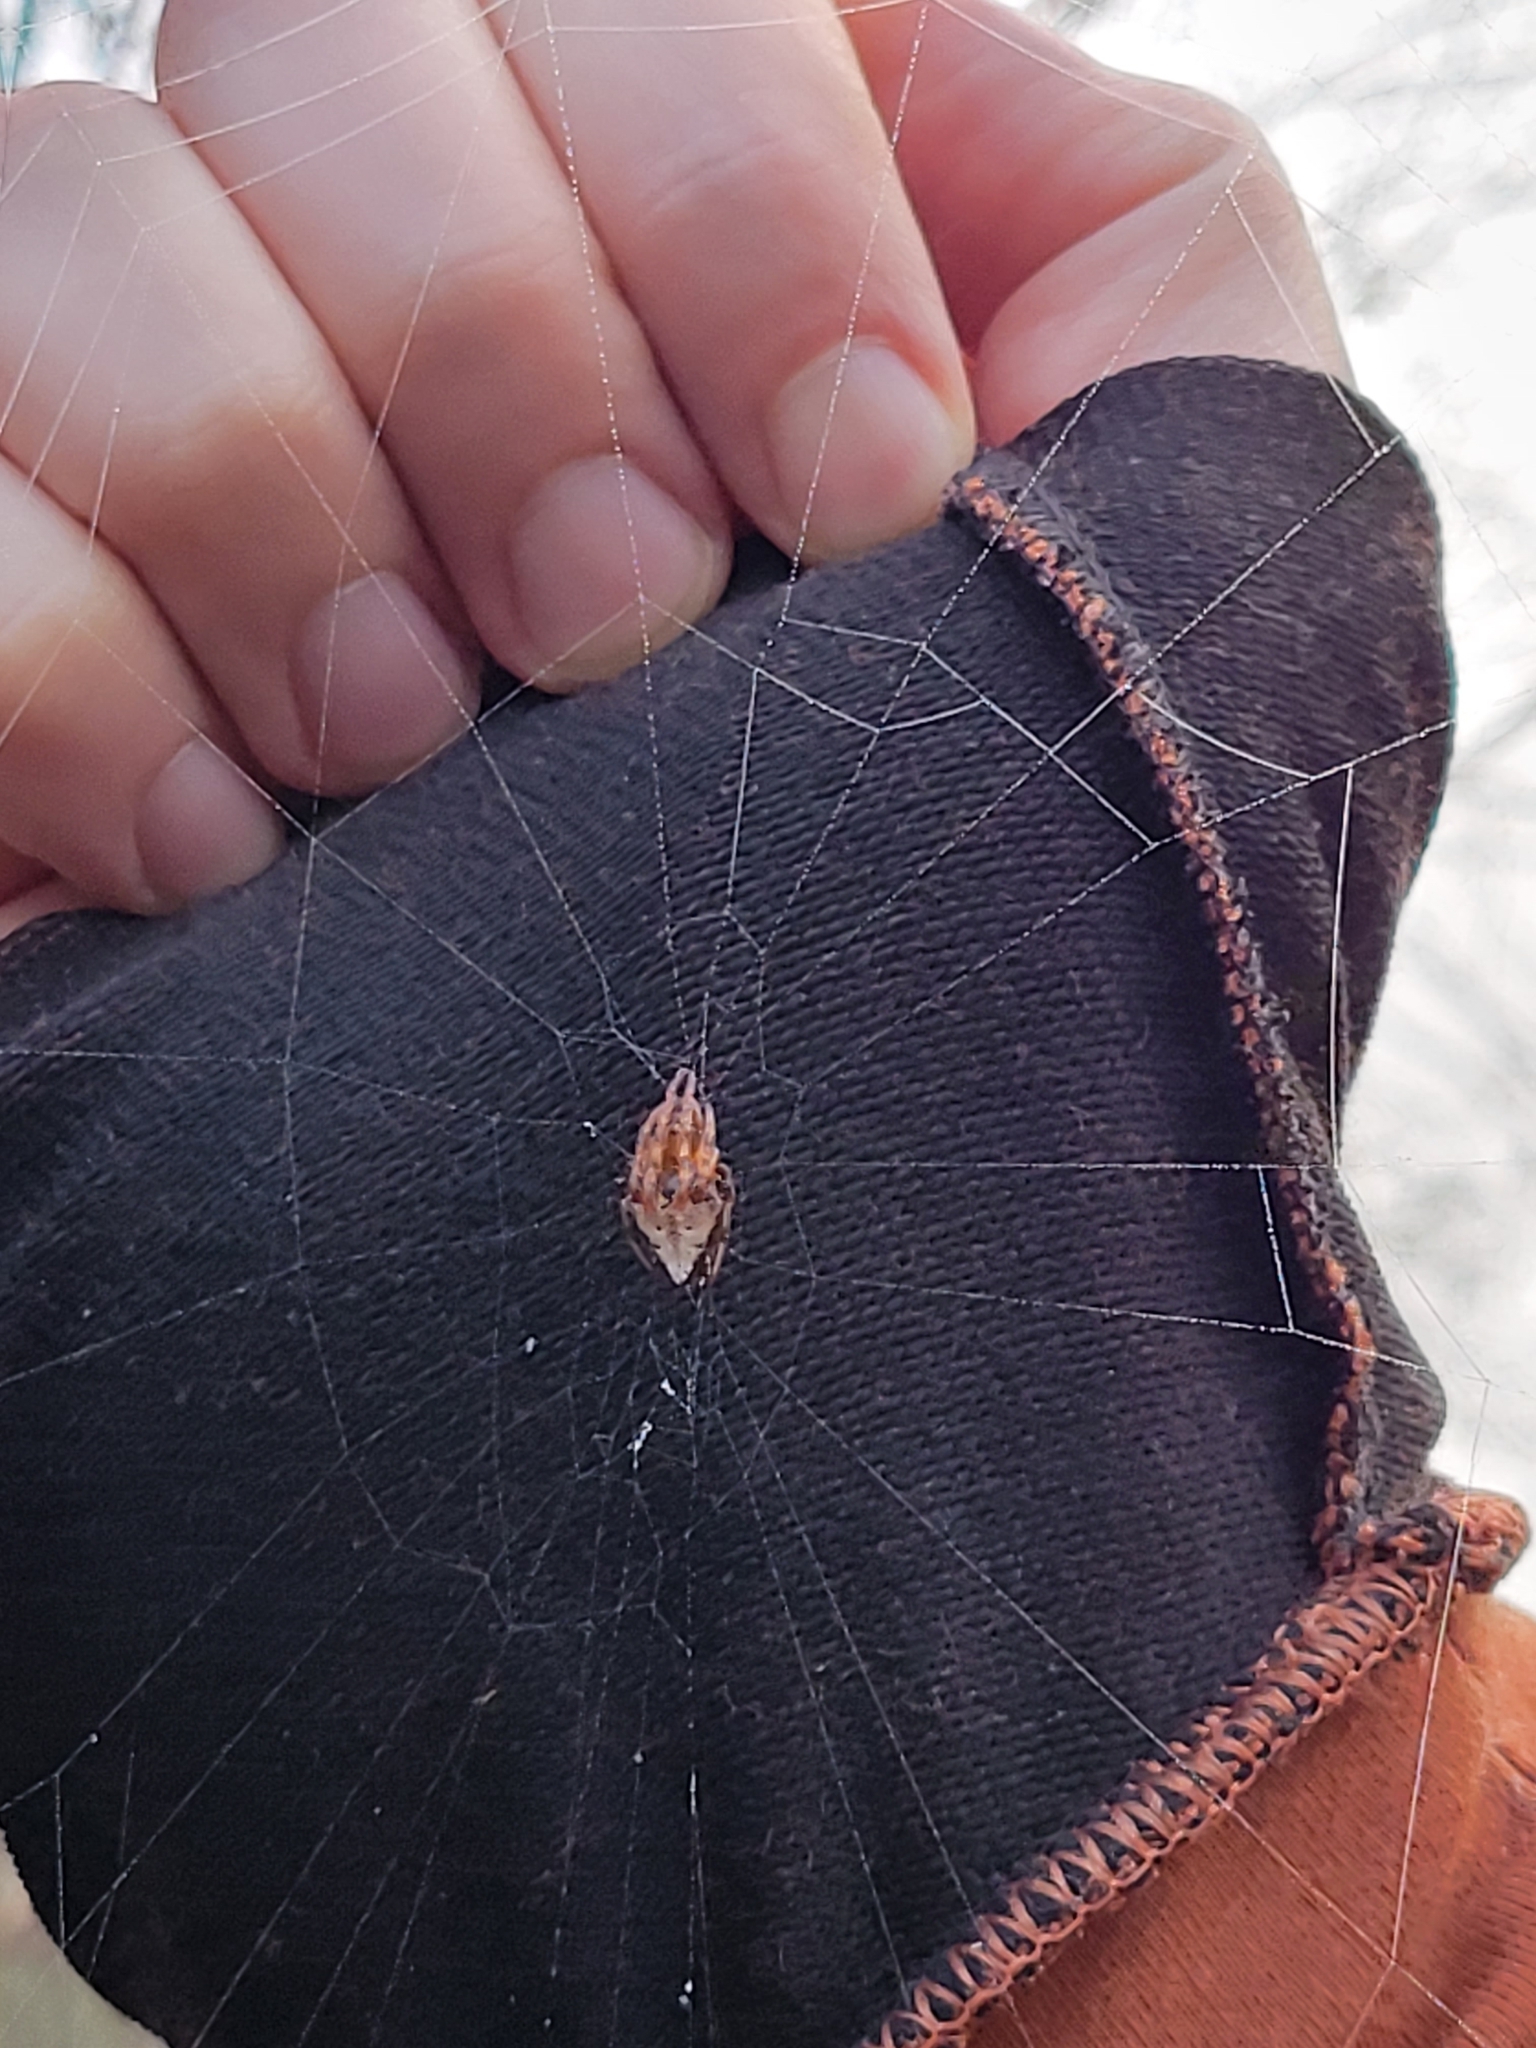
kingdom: Animalia
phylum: Arthropoda
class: Arachnida
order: Araneae
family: Araneidae
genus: Verrucosa
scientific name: Verrucosa arenata
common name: Orb weavers
